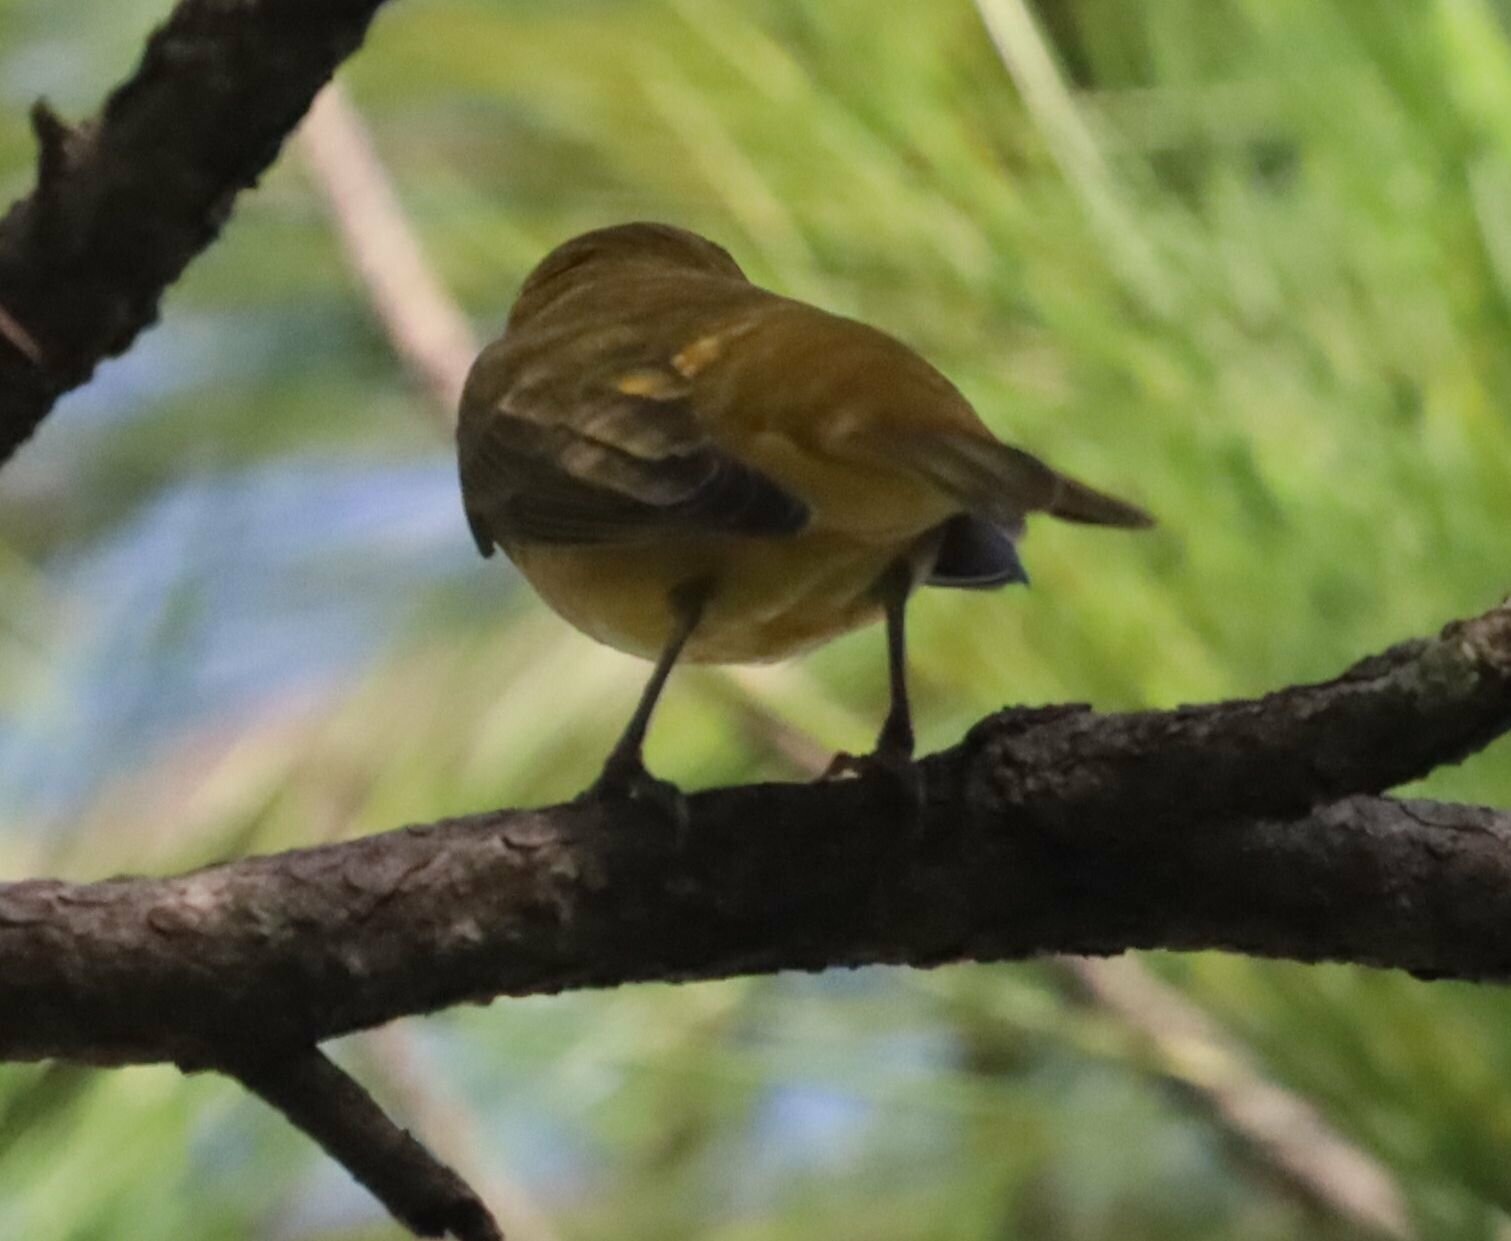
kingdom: Animalia
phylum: Chordata
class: Aves
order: Passeriformes
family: Cardinalidae
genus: Piranga
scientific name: Piranga rubra
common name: Summer tanager
